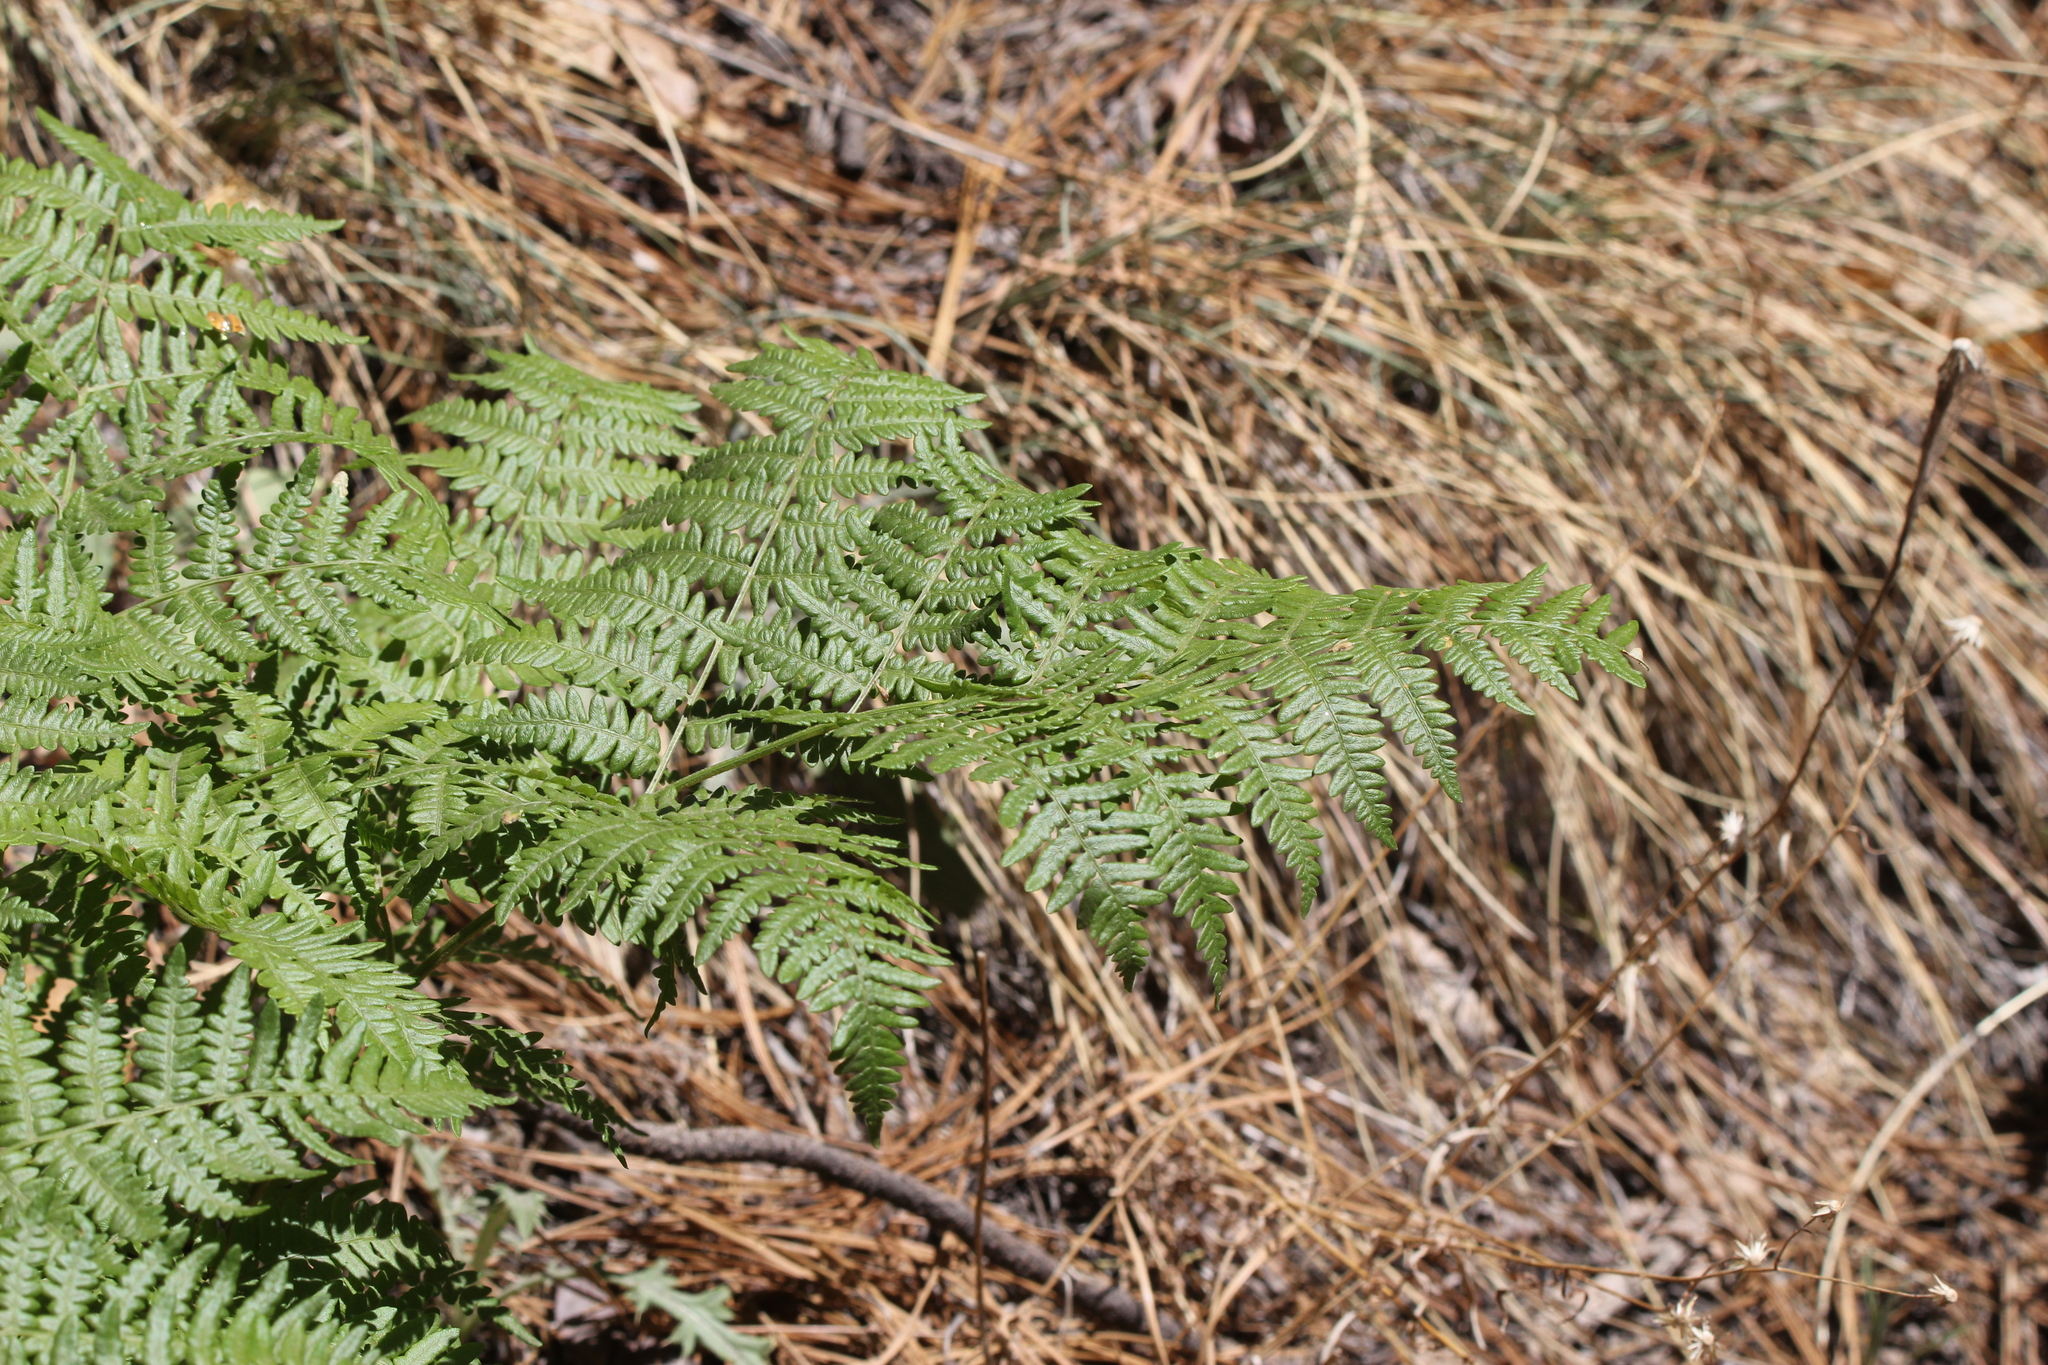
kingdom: Plantae
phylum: Tracheophyta
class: Polypodiopsida
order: Polypodiales
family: Dennstaedtiaceae
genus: Pteridium
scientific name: Pteridium aquilinum
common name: Bracken
